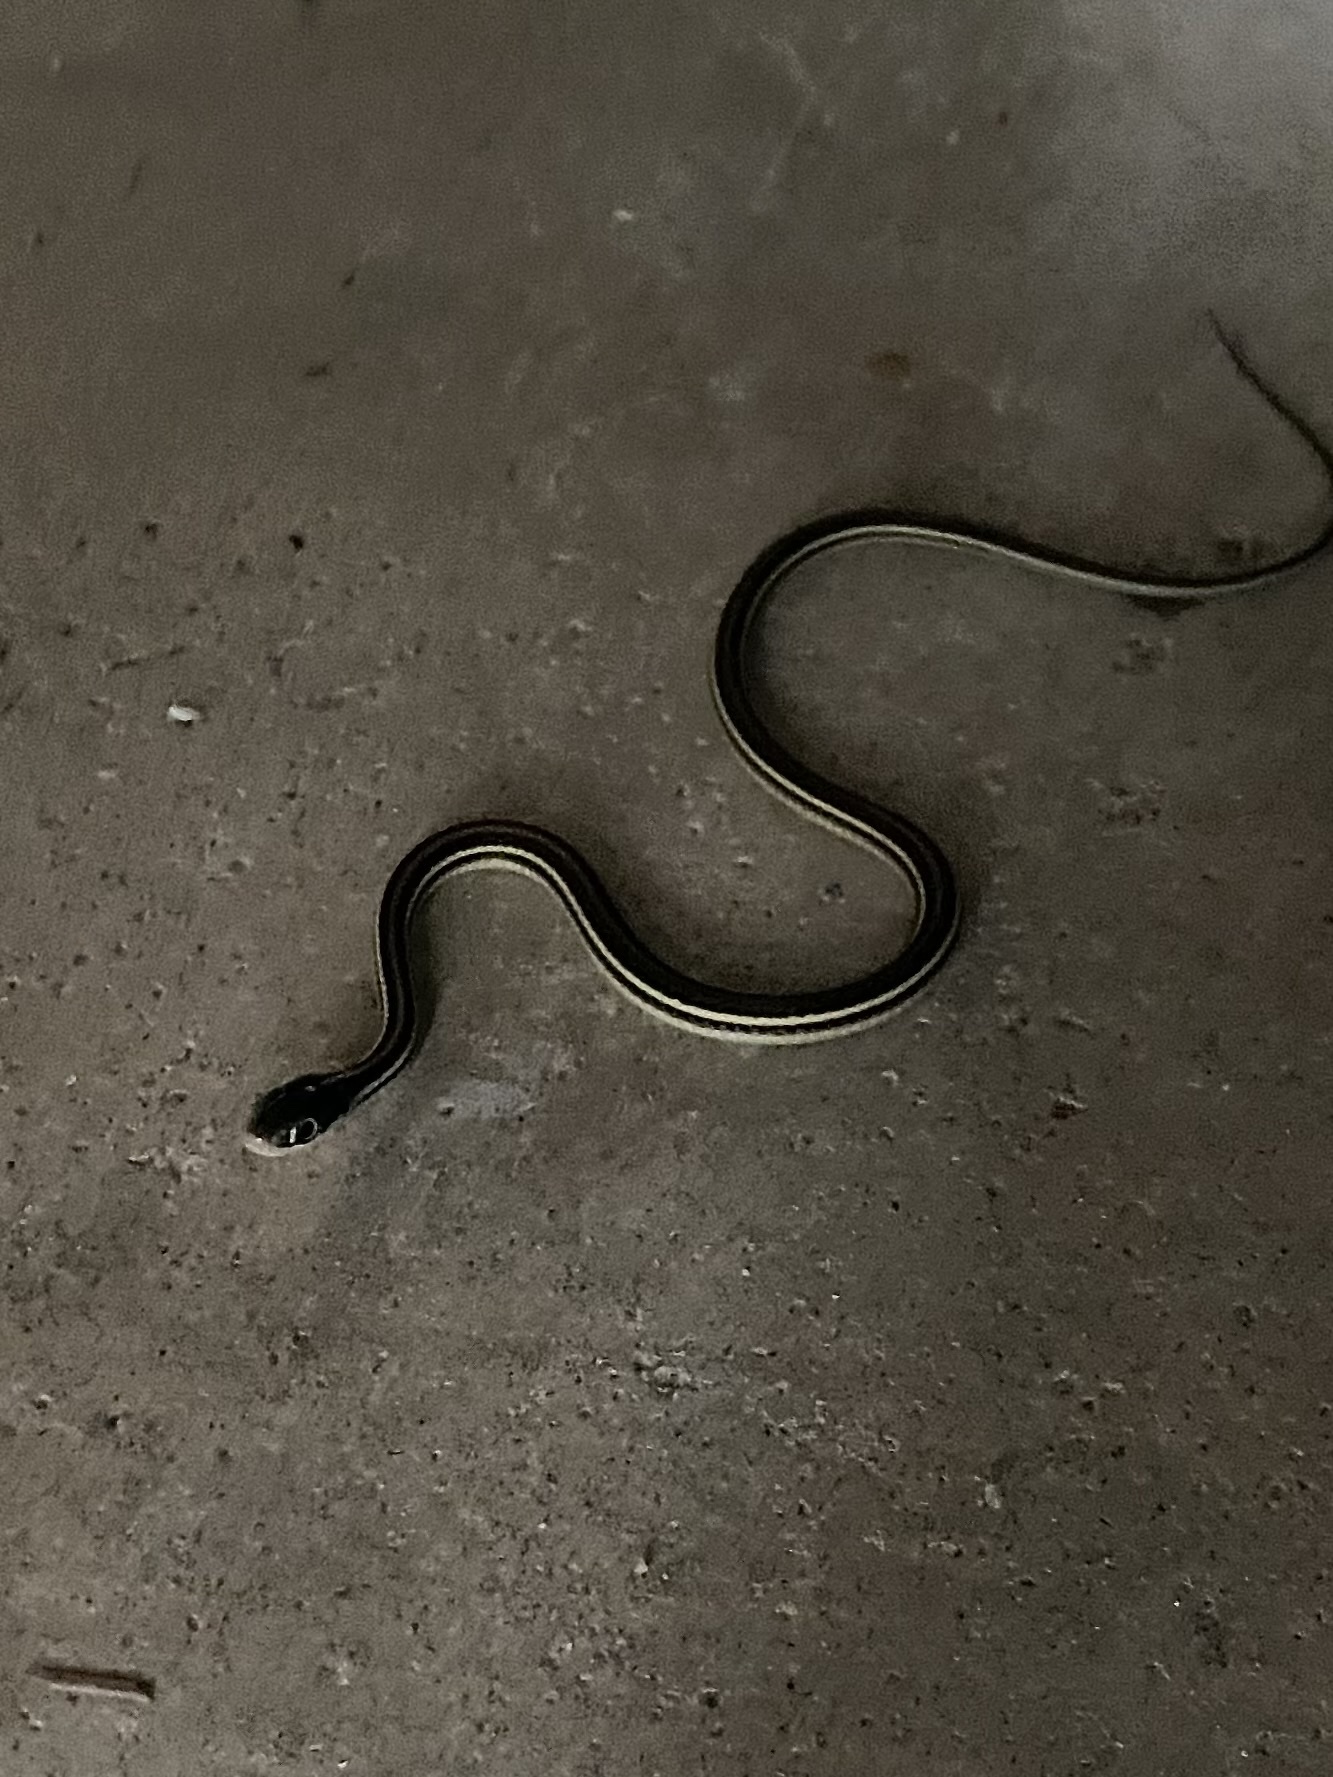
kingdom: Animalia
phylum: Chordata
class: Squamata
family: Colubridae
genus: Thamnophis
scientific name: Thamnophis proximus
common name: Western ribbon snake
